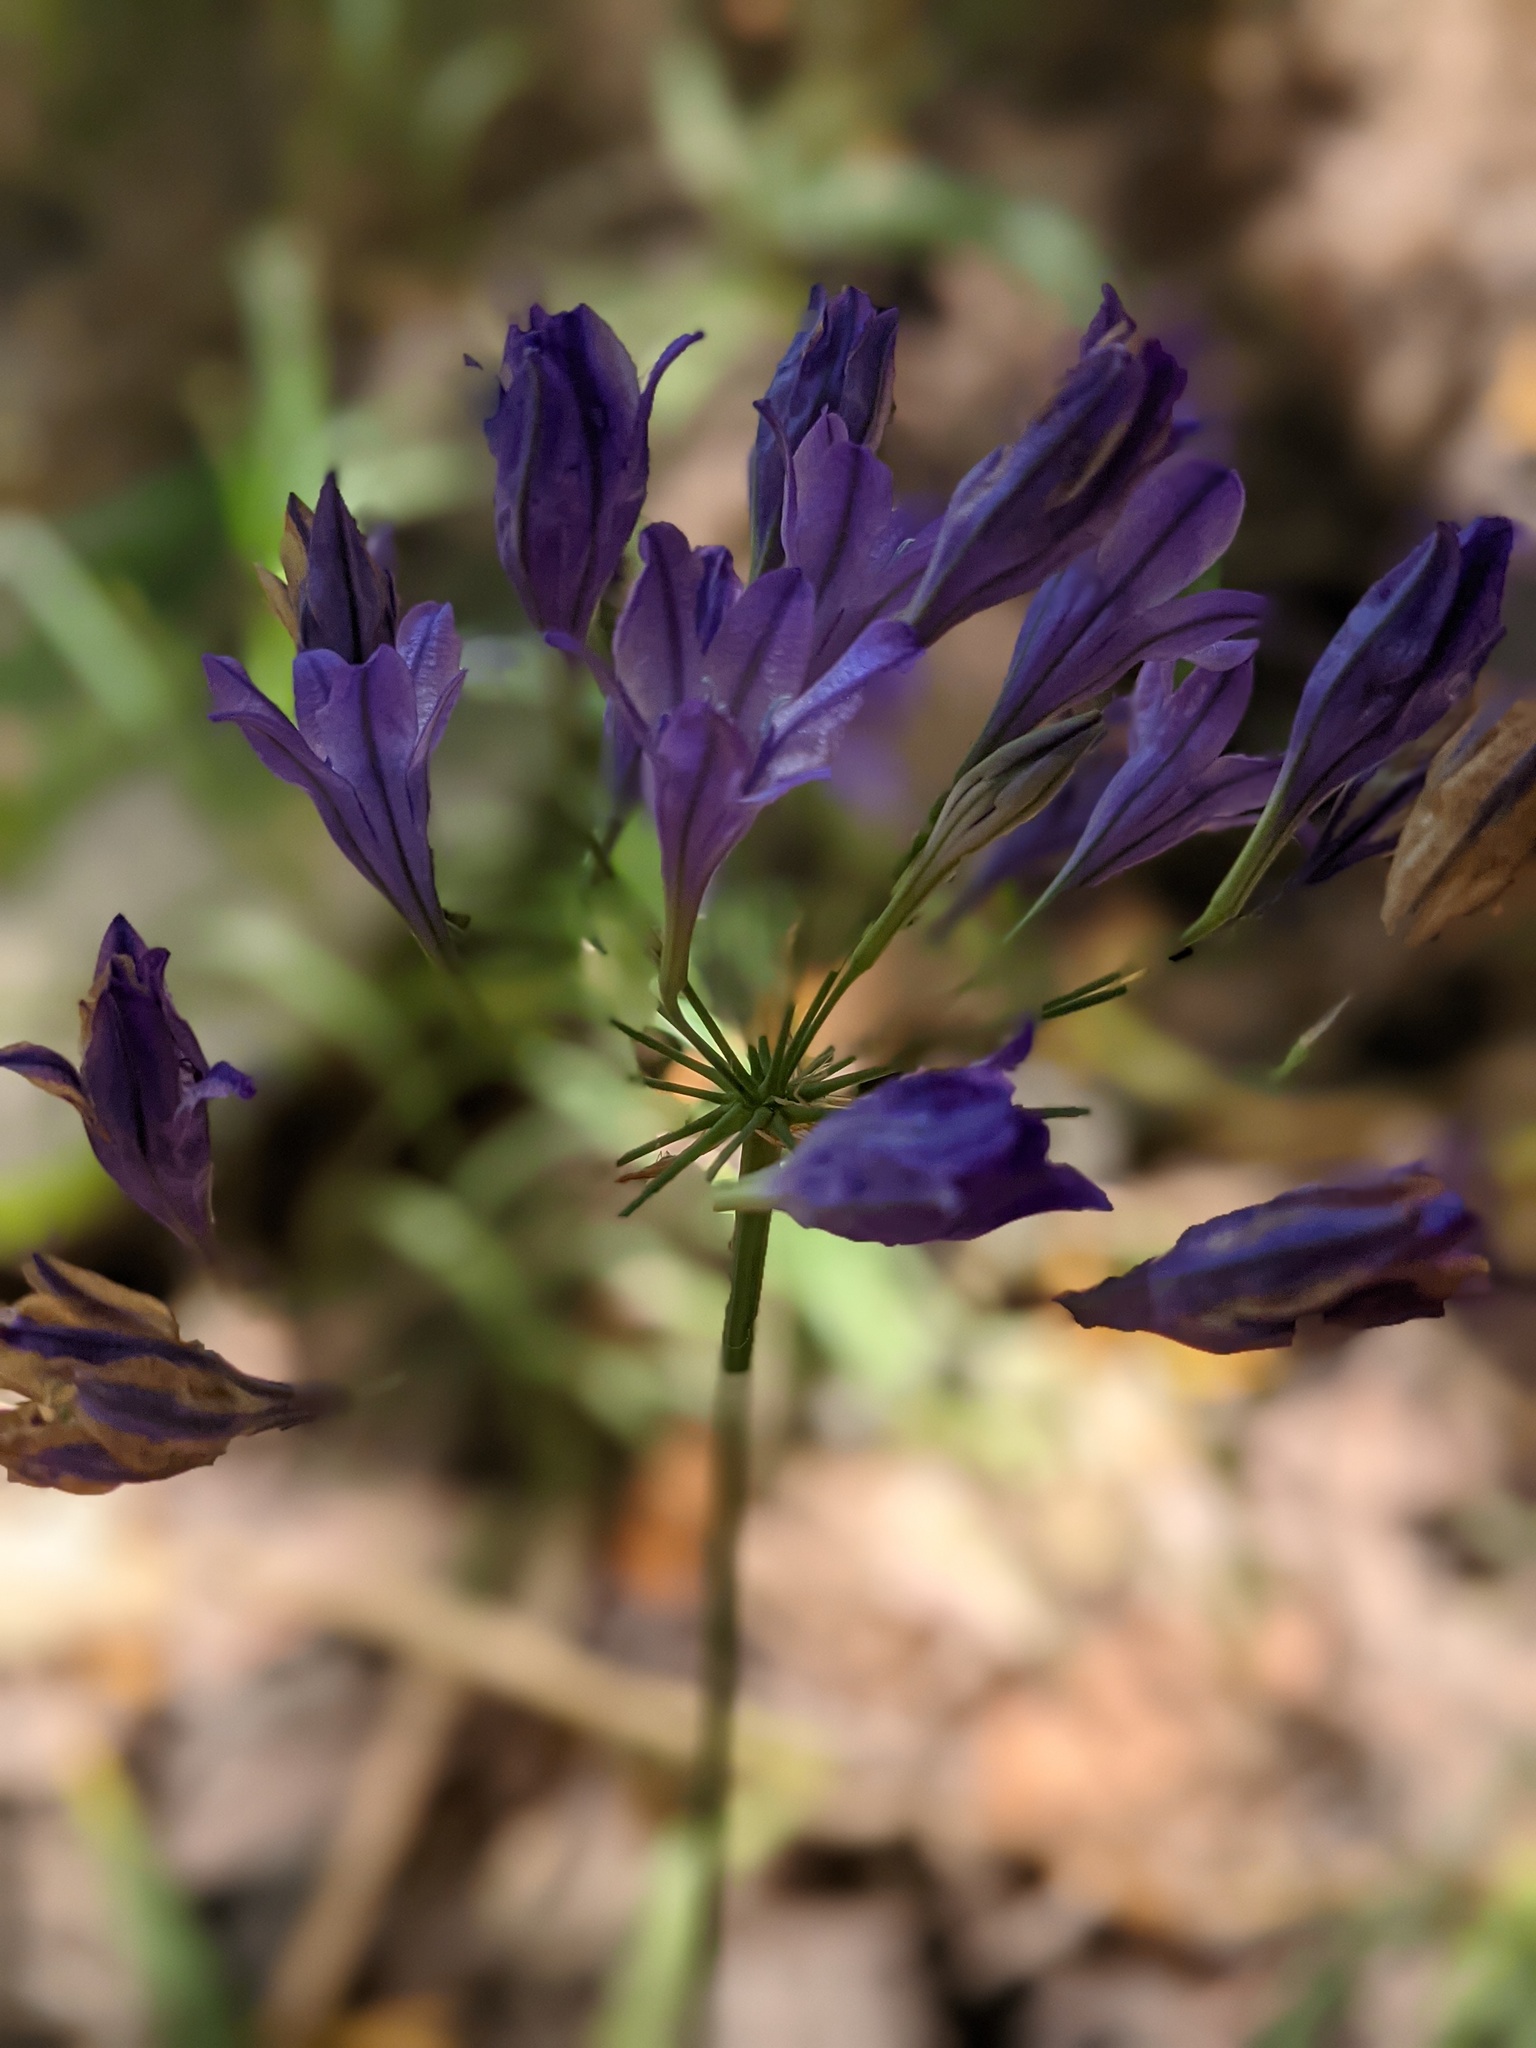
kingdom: Plantae
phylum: Tracheophyta
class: Liliopsida
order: Asparagales
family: Asparagaceae
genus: Triteleia
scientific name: Triteleia laxa
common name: Triplet-lily
